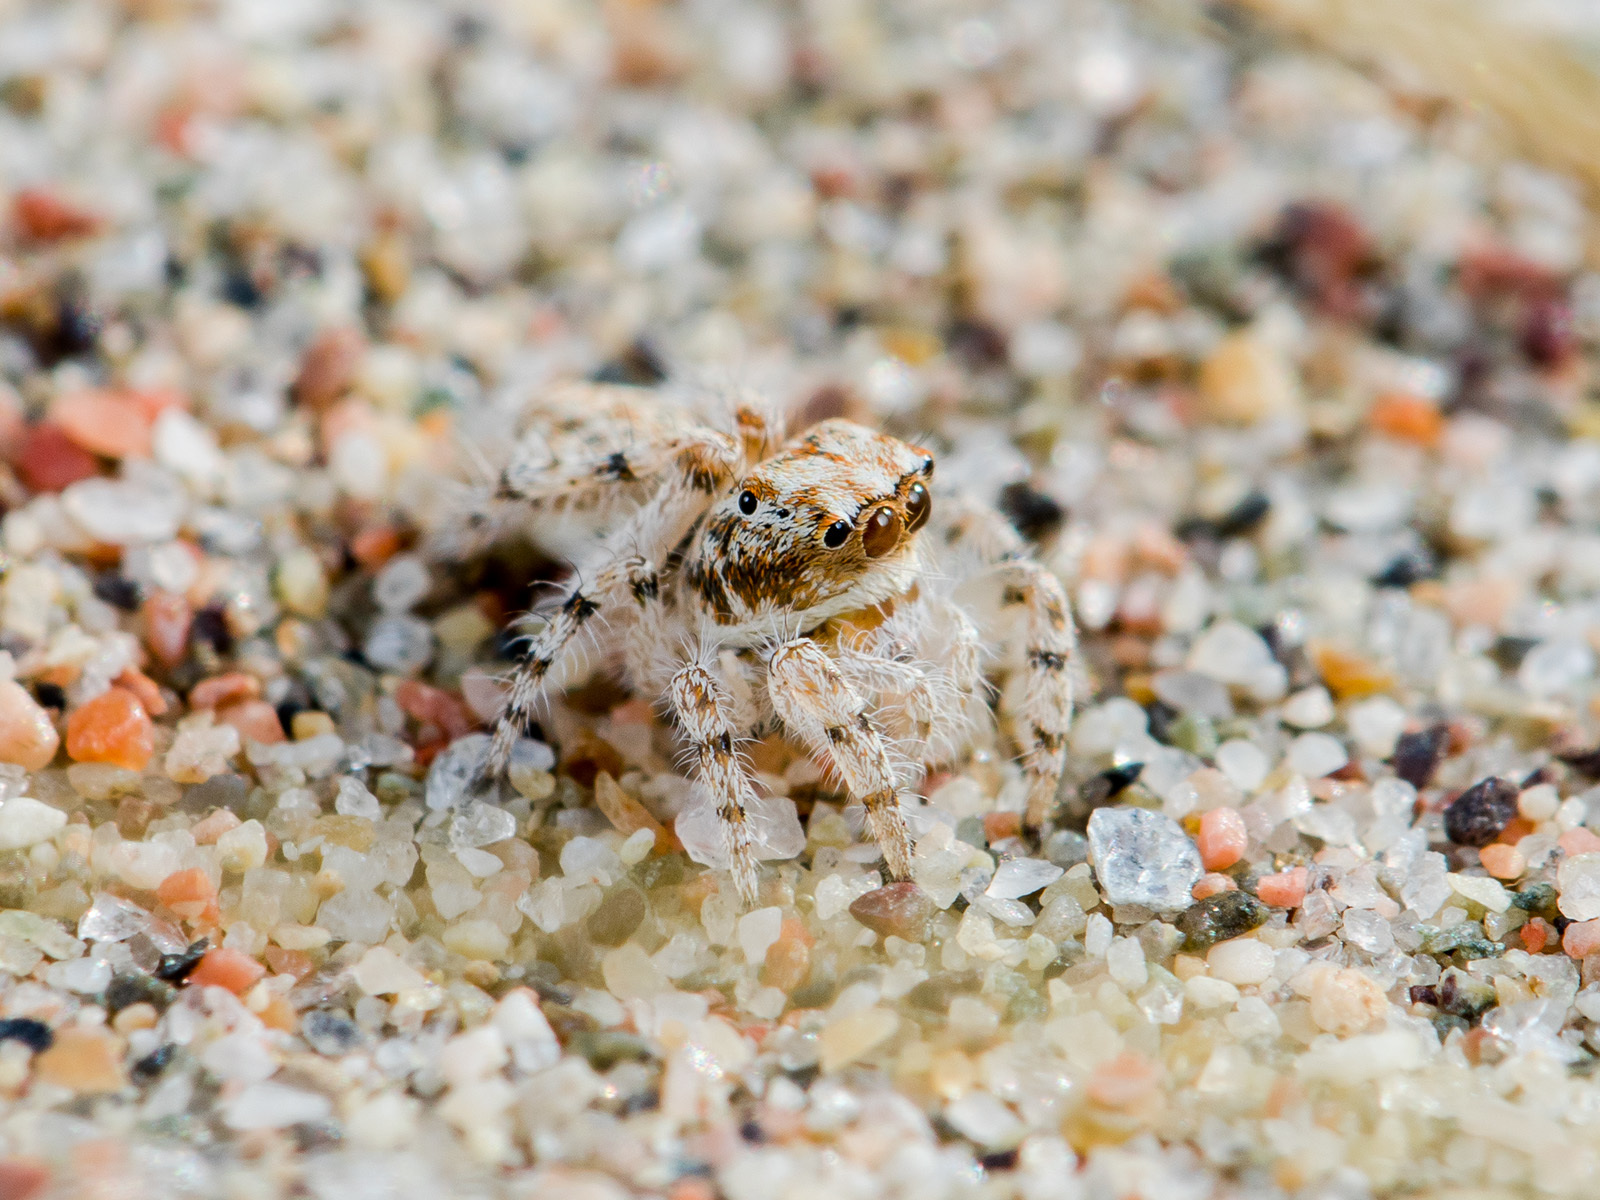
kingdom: Animalia
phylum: Arthropoda
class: Arachnida
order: Araneae
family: Salticidae
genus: Yllenus
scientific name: Yllenus uiguricus
